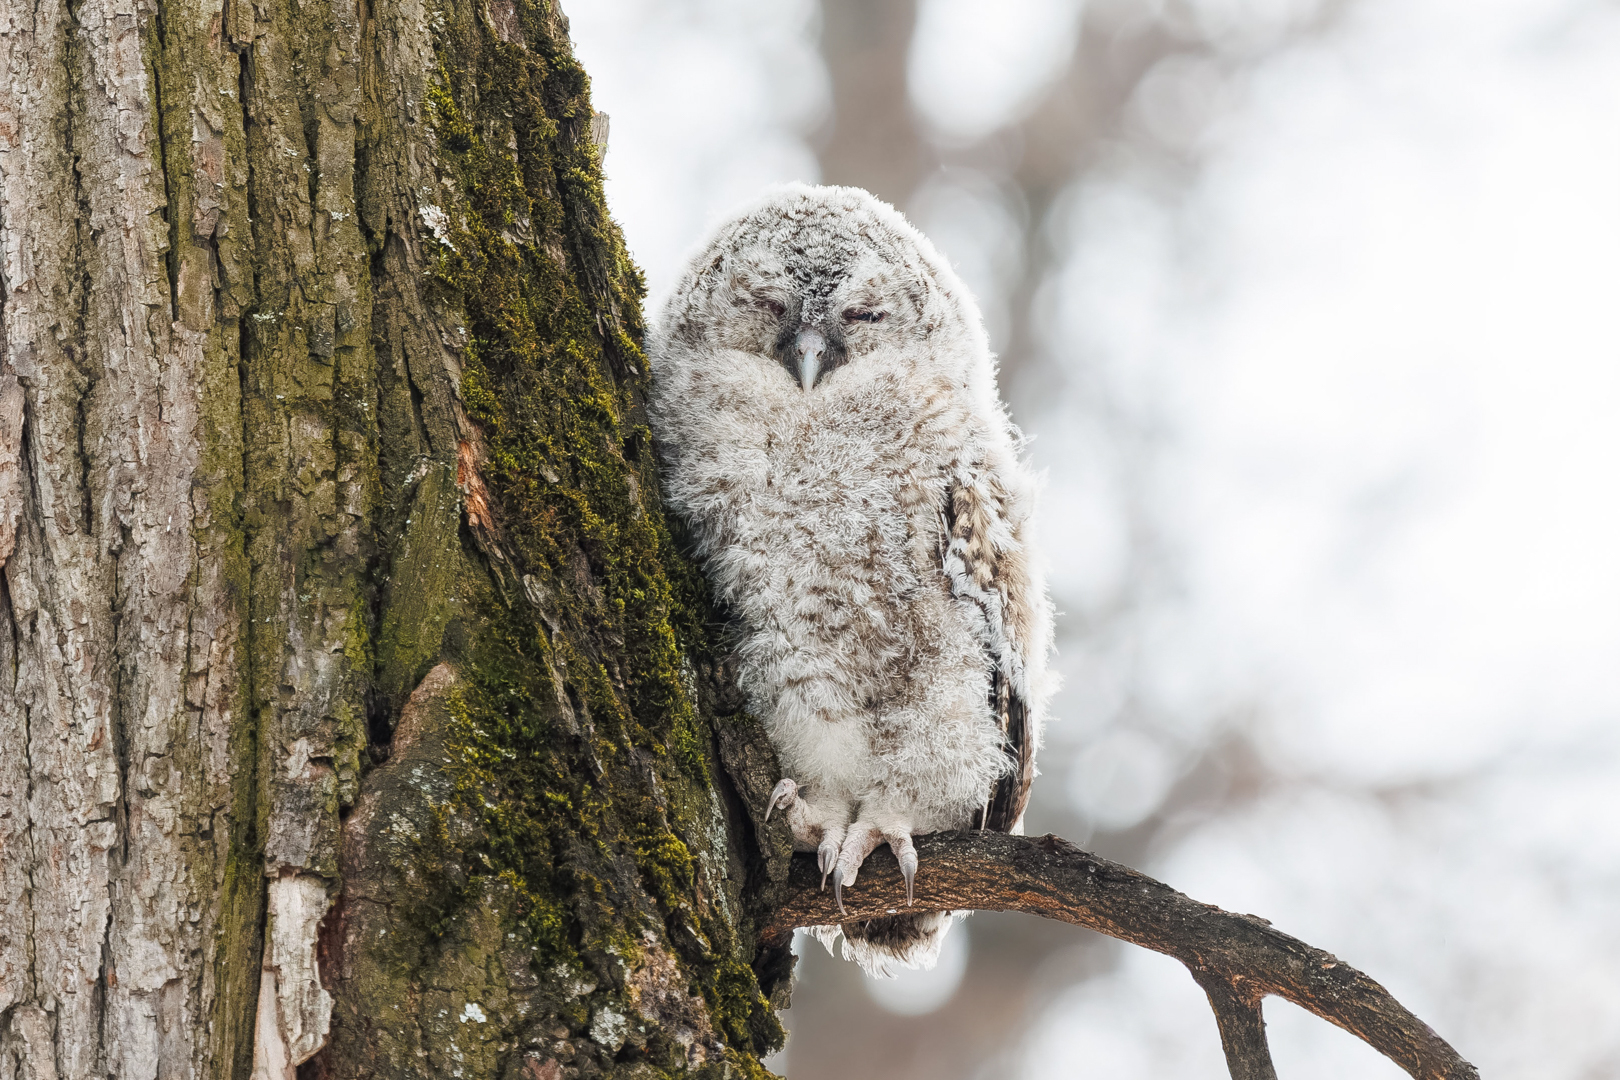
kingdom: Animalia
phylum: Chordata
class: Aves
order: Strigiformes
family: Strigidae
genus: Strix
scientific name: Strix aluco
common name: Tawny owl
